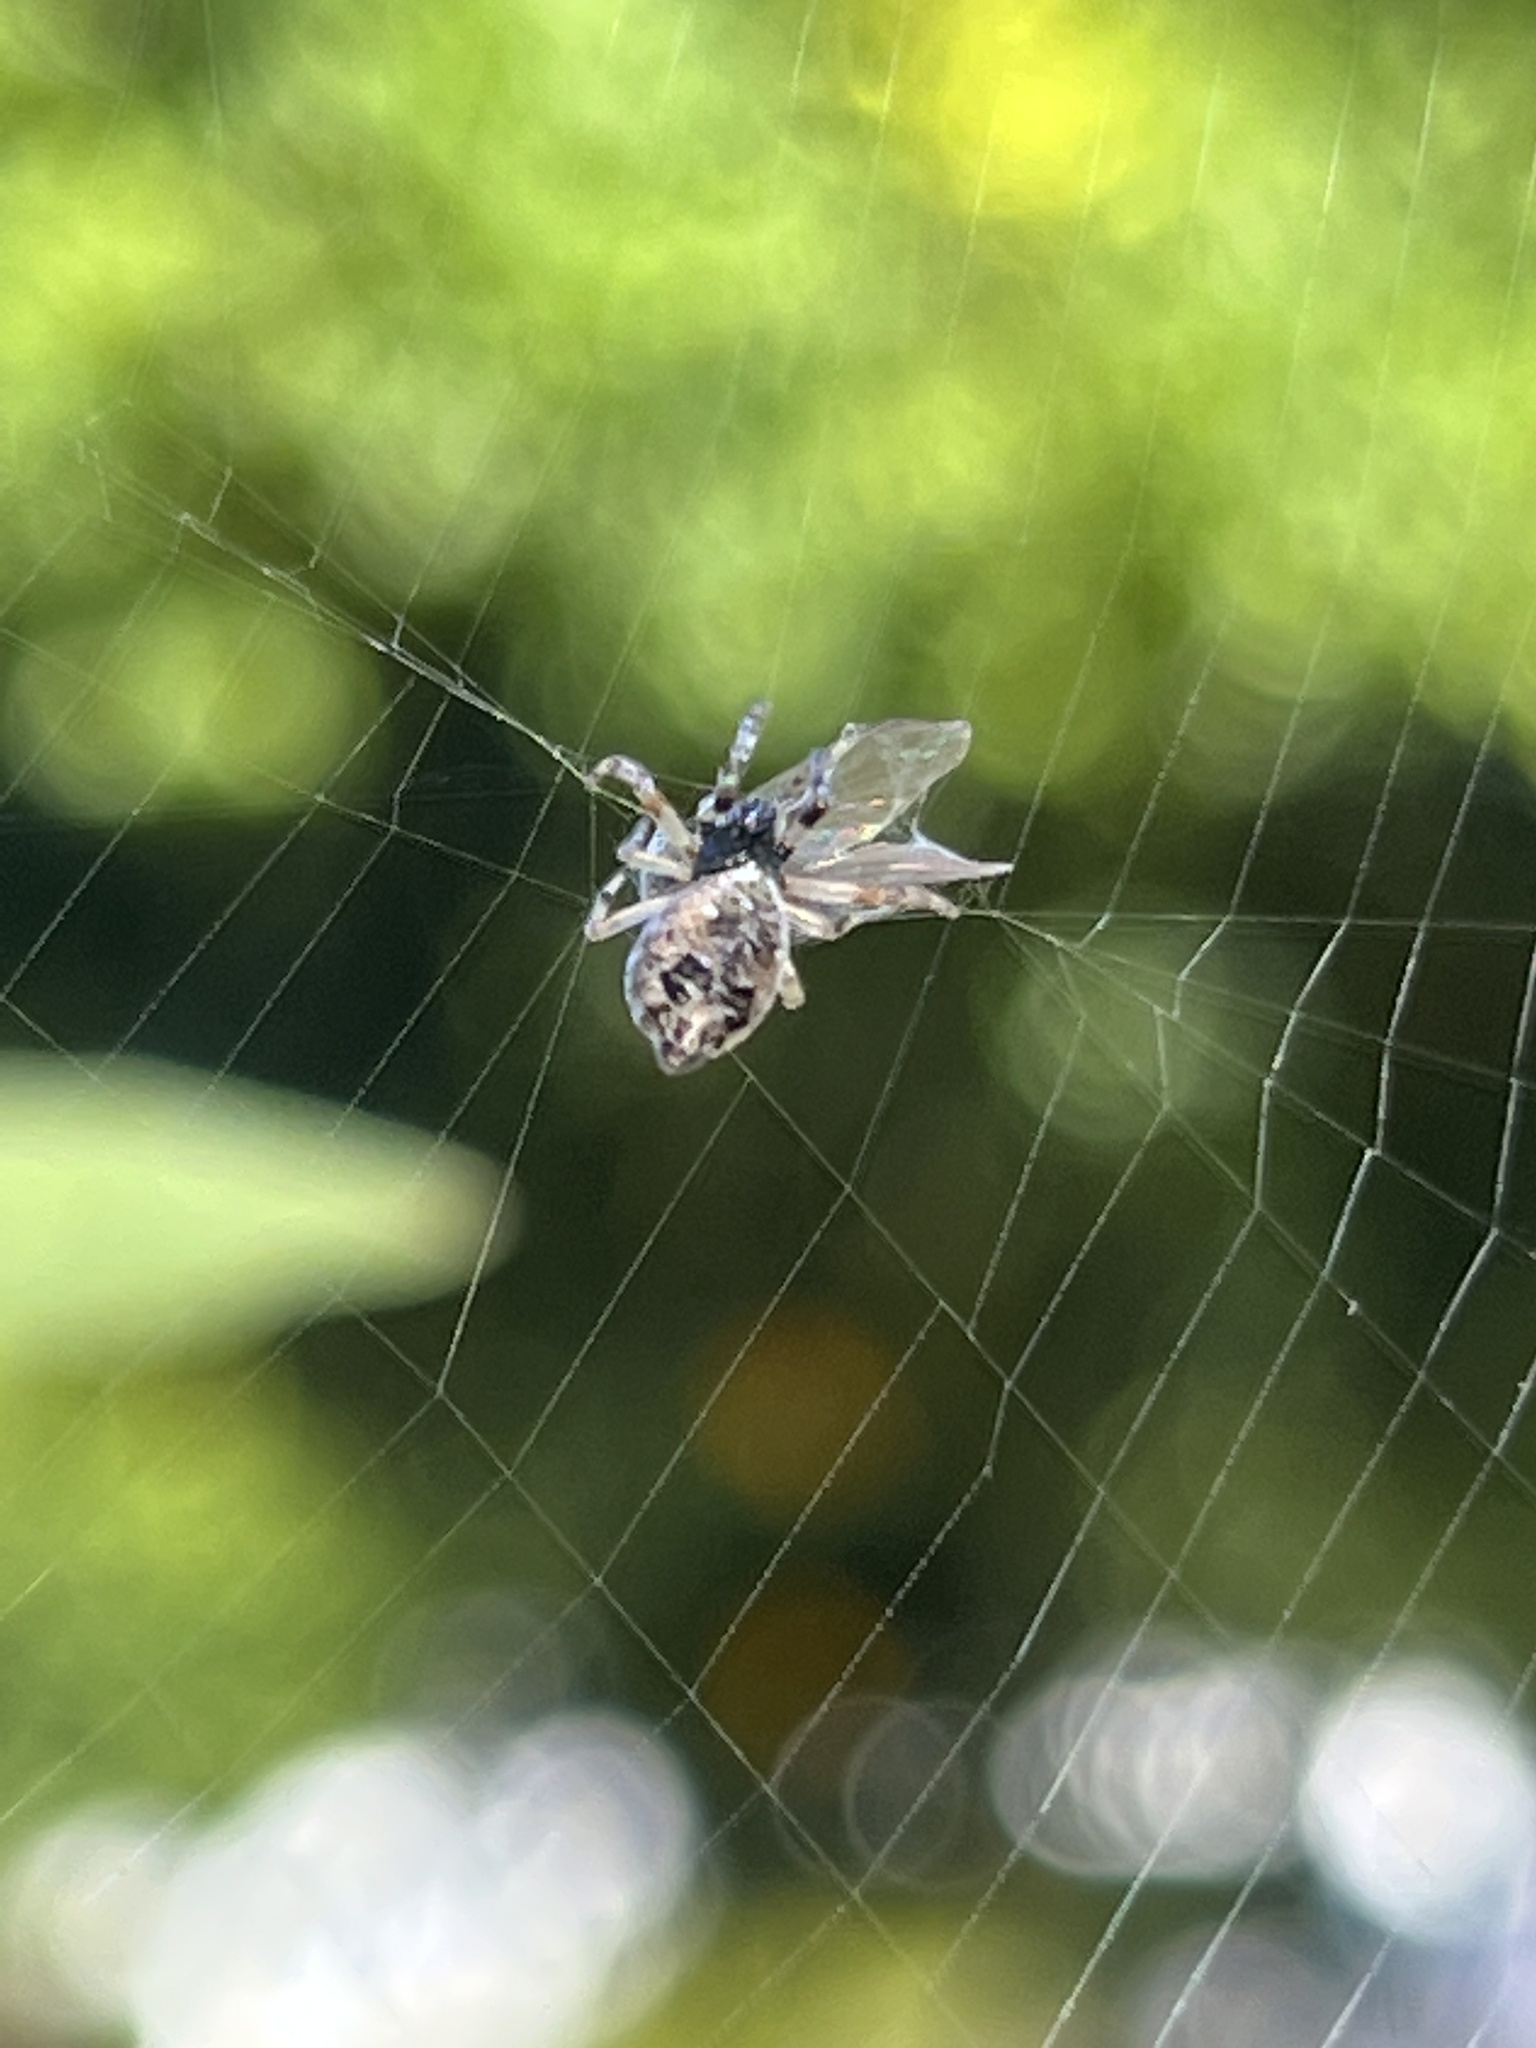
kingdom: Animalia
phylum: Arthropoda
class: Arachnida
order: Araneae
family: Araneidae
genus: Cyclosa
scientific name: Cyclosa turbinata
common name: Orb weavers
